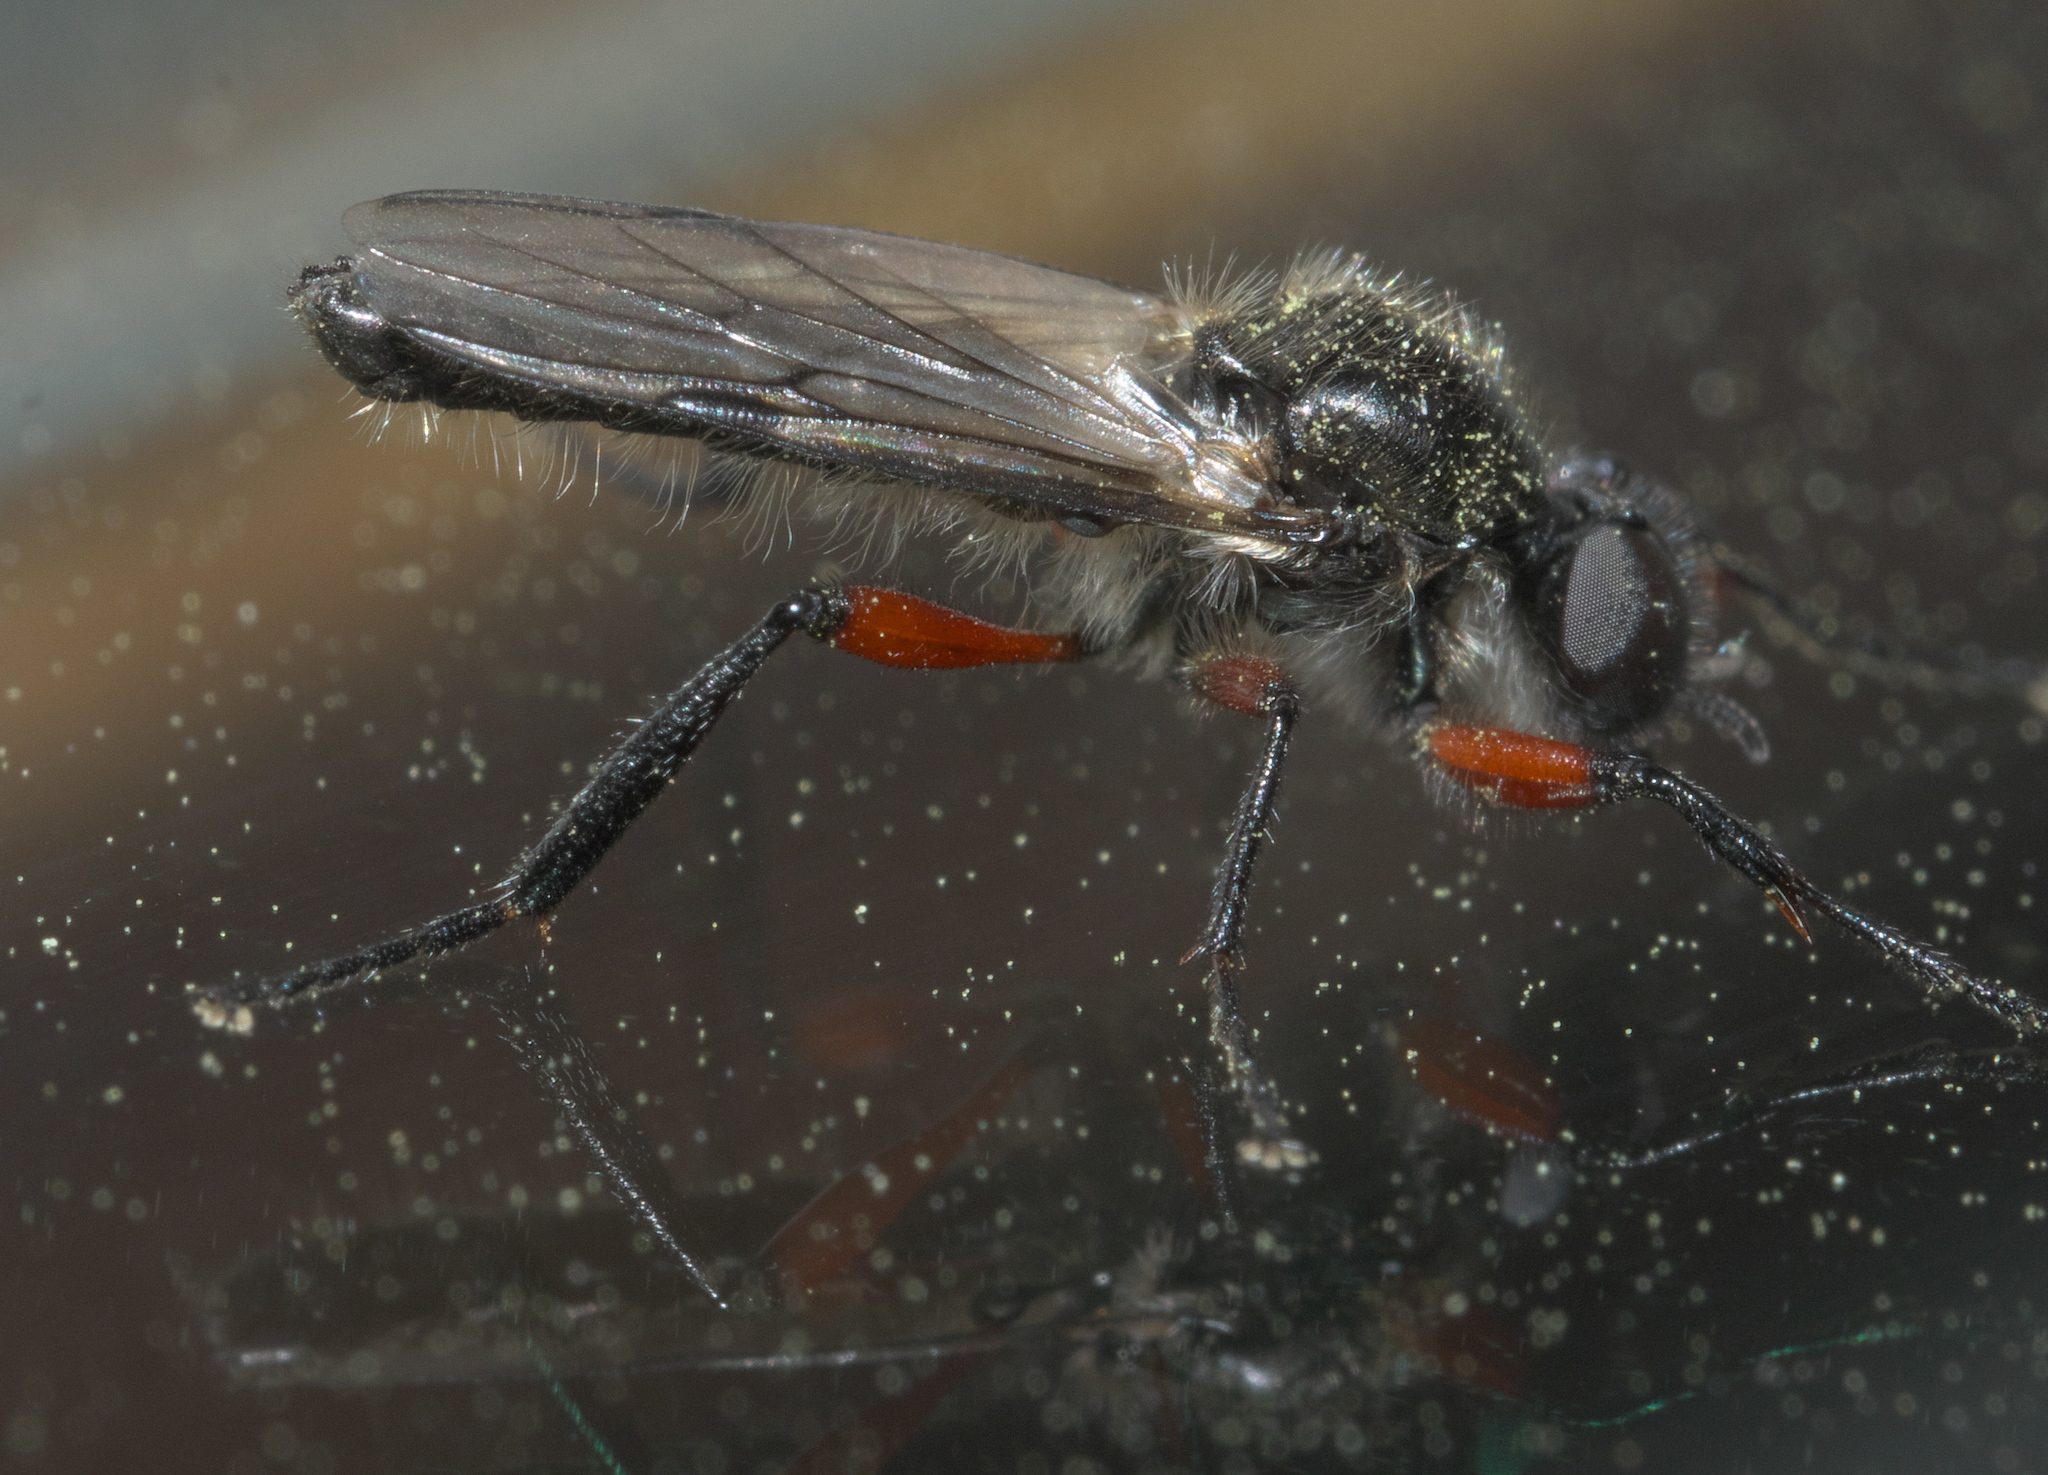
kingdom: Animalia
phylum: Arthropoda
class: Insecta
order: Diptera
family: Bibionidae
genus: Bibio
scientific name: Bibio femoratus
